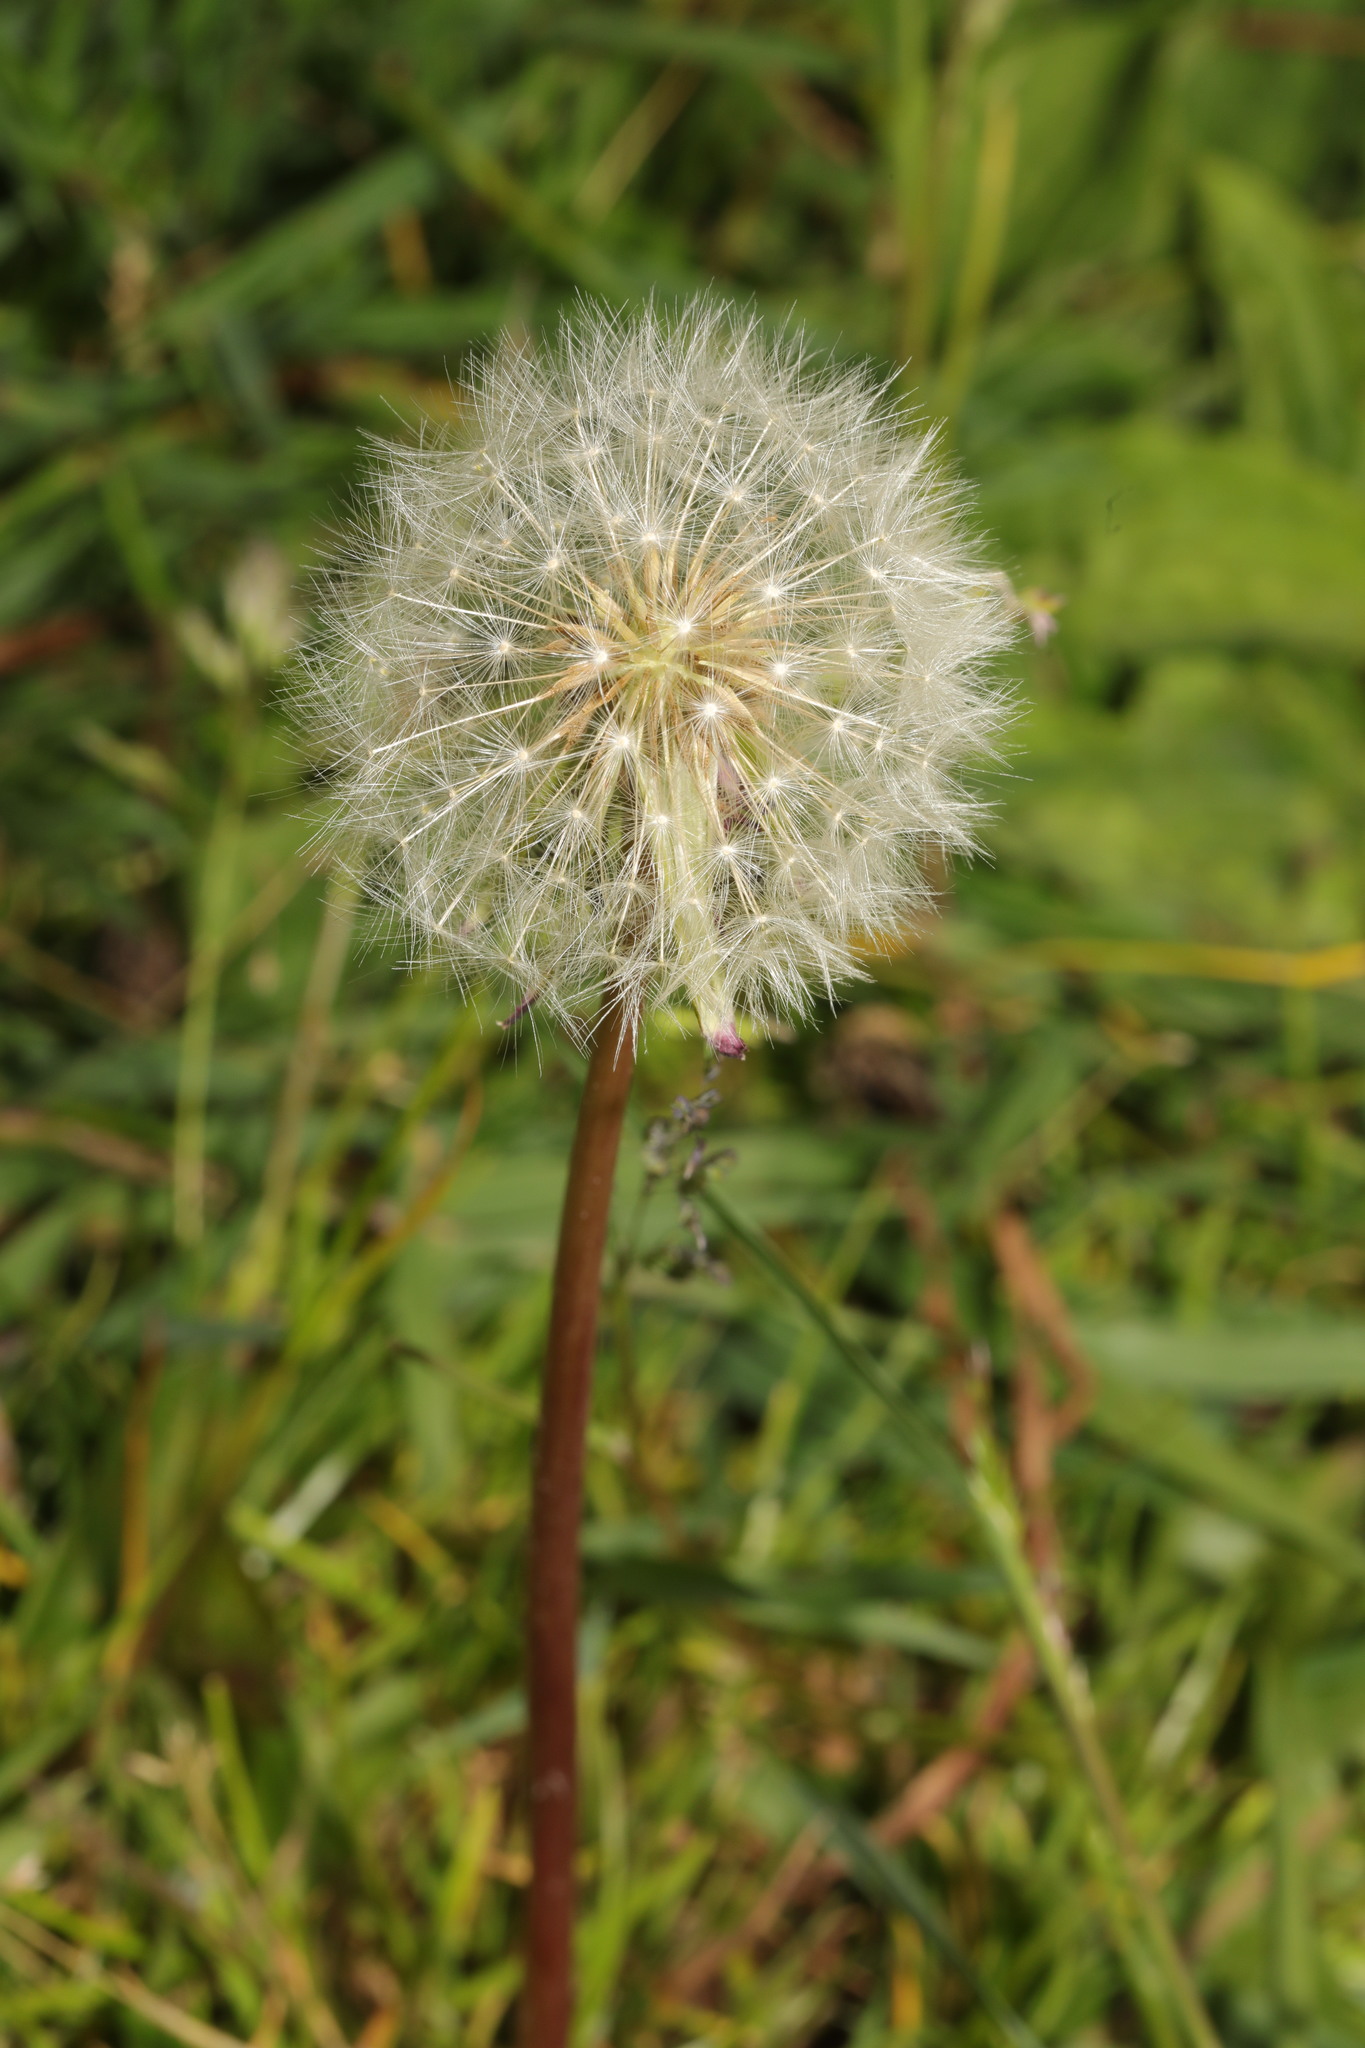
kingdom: Plantae
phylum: Tracheophyta
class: Magnoliopsida
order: Asterales
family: Asteraceae
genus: Taraxacum
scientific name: Taraxacum officinale
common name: Common dandelion
